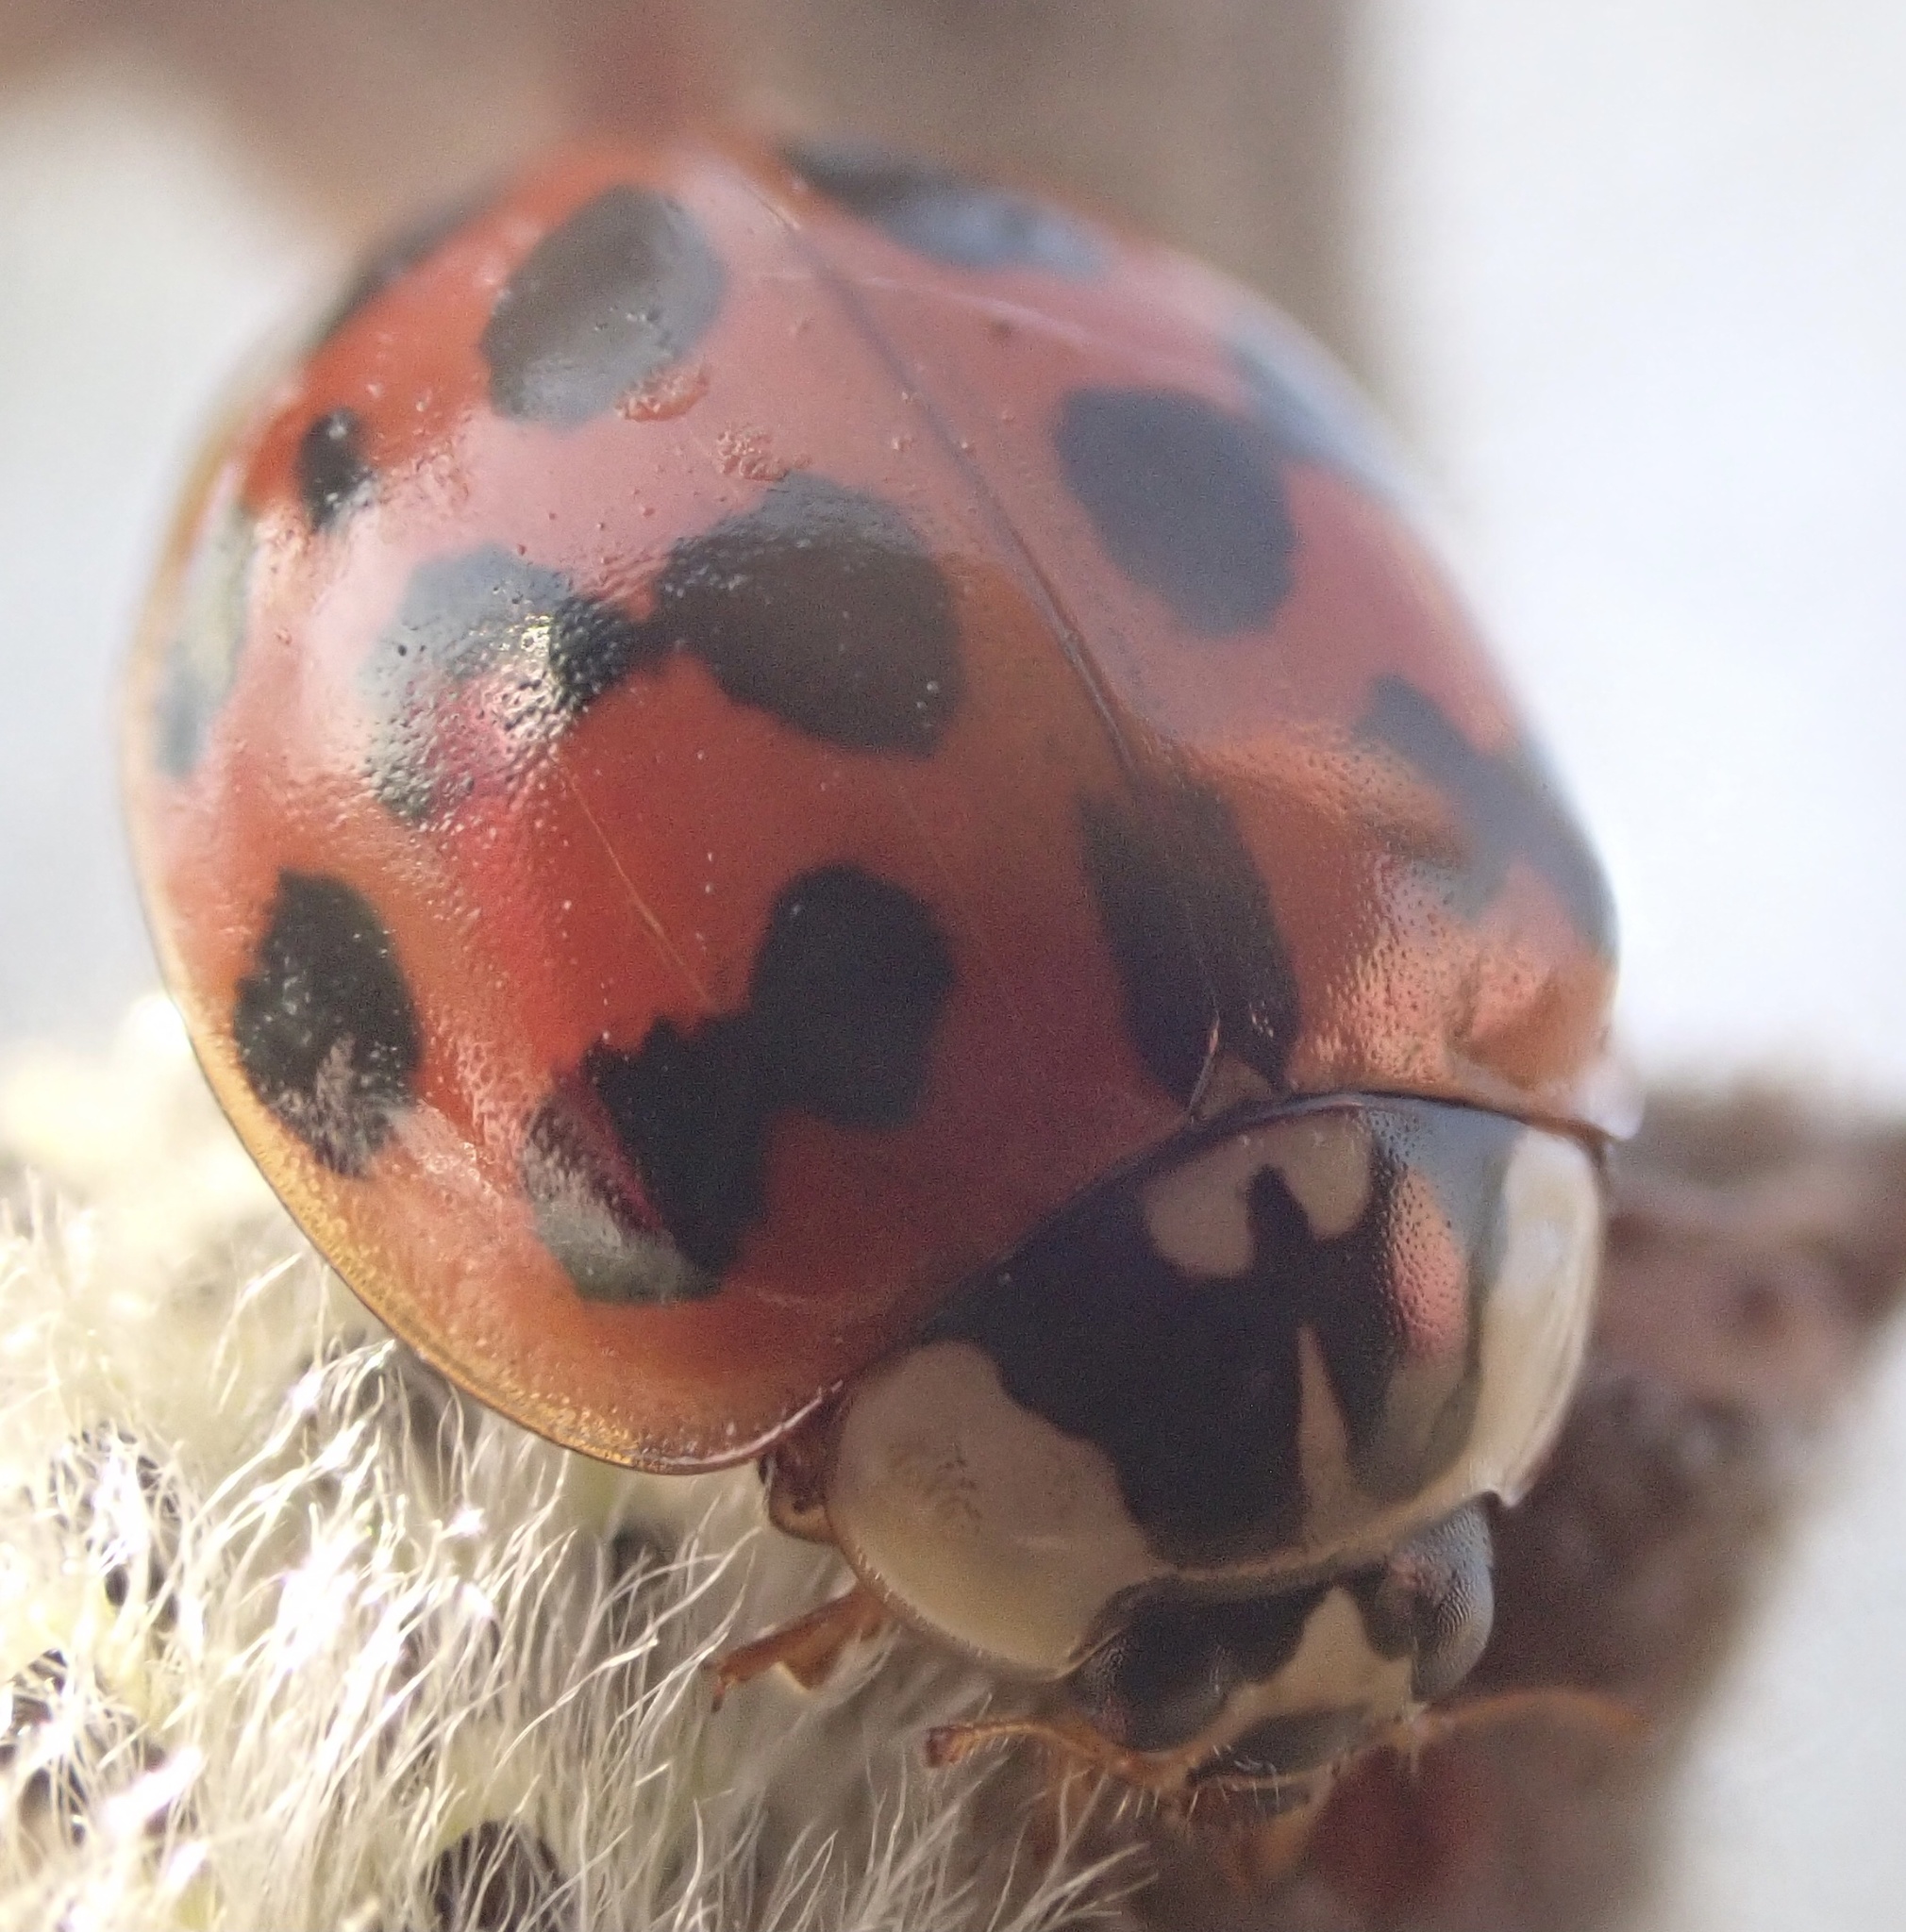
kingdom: Animalia
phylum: Arthropoda
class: Insecta
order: Coleoptera
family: Coccinellidae
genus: Harmonia
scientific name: Harmonia axyridis
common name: Harlequin ladybird
